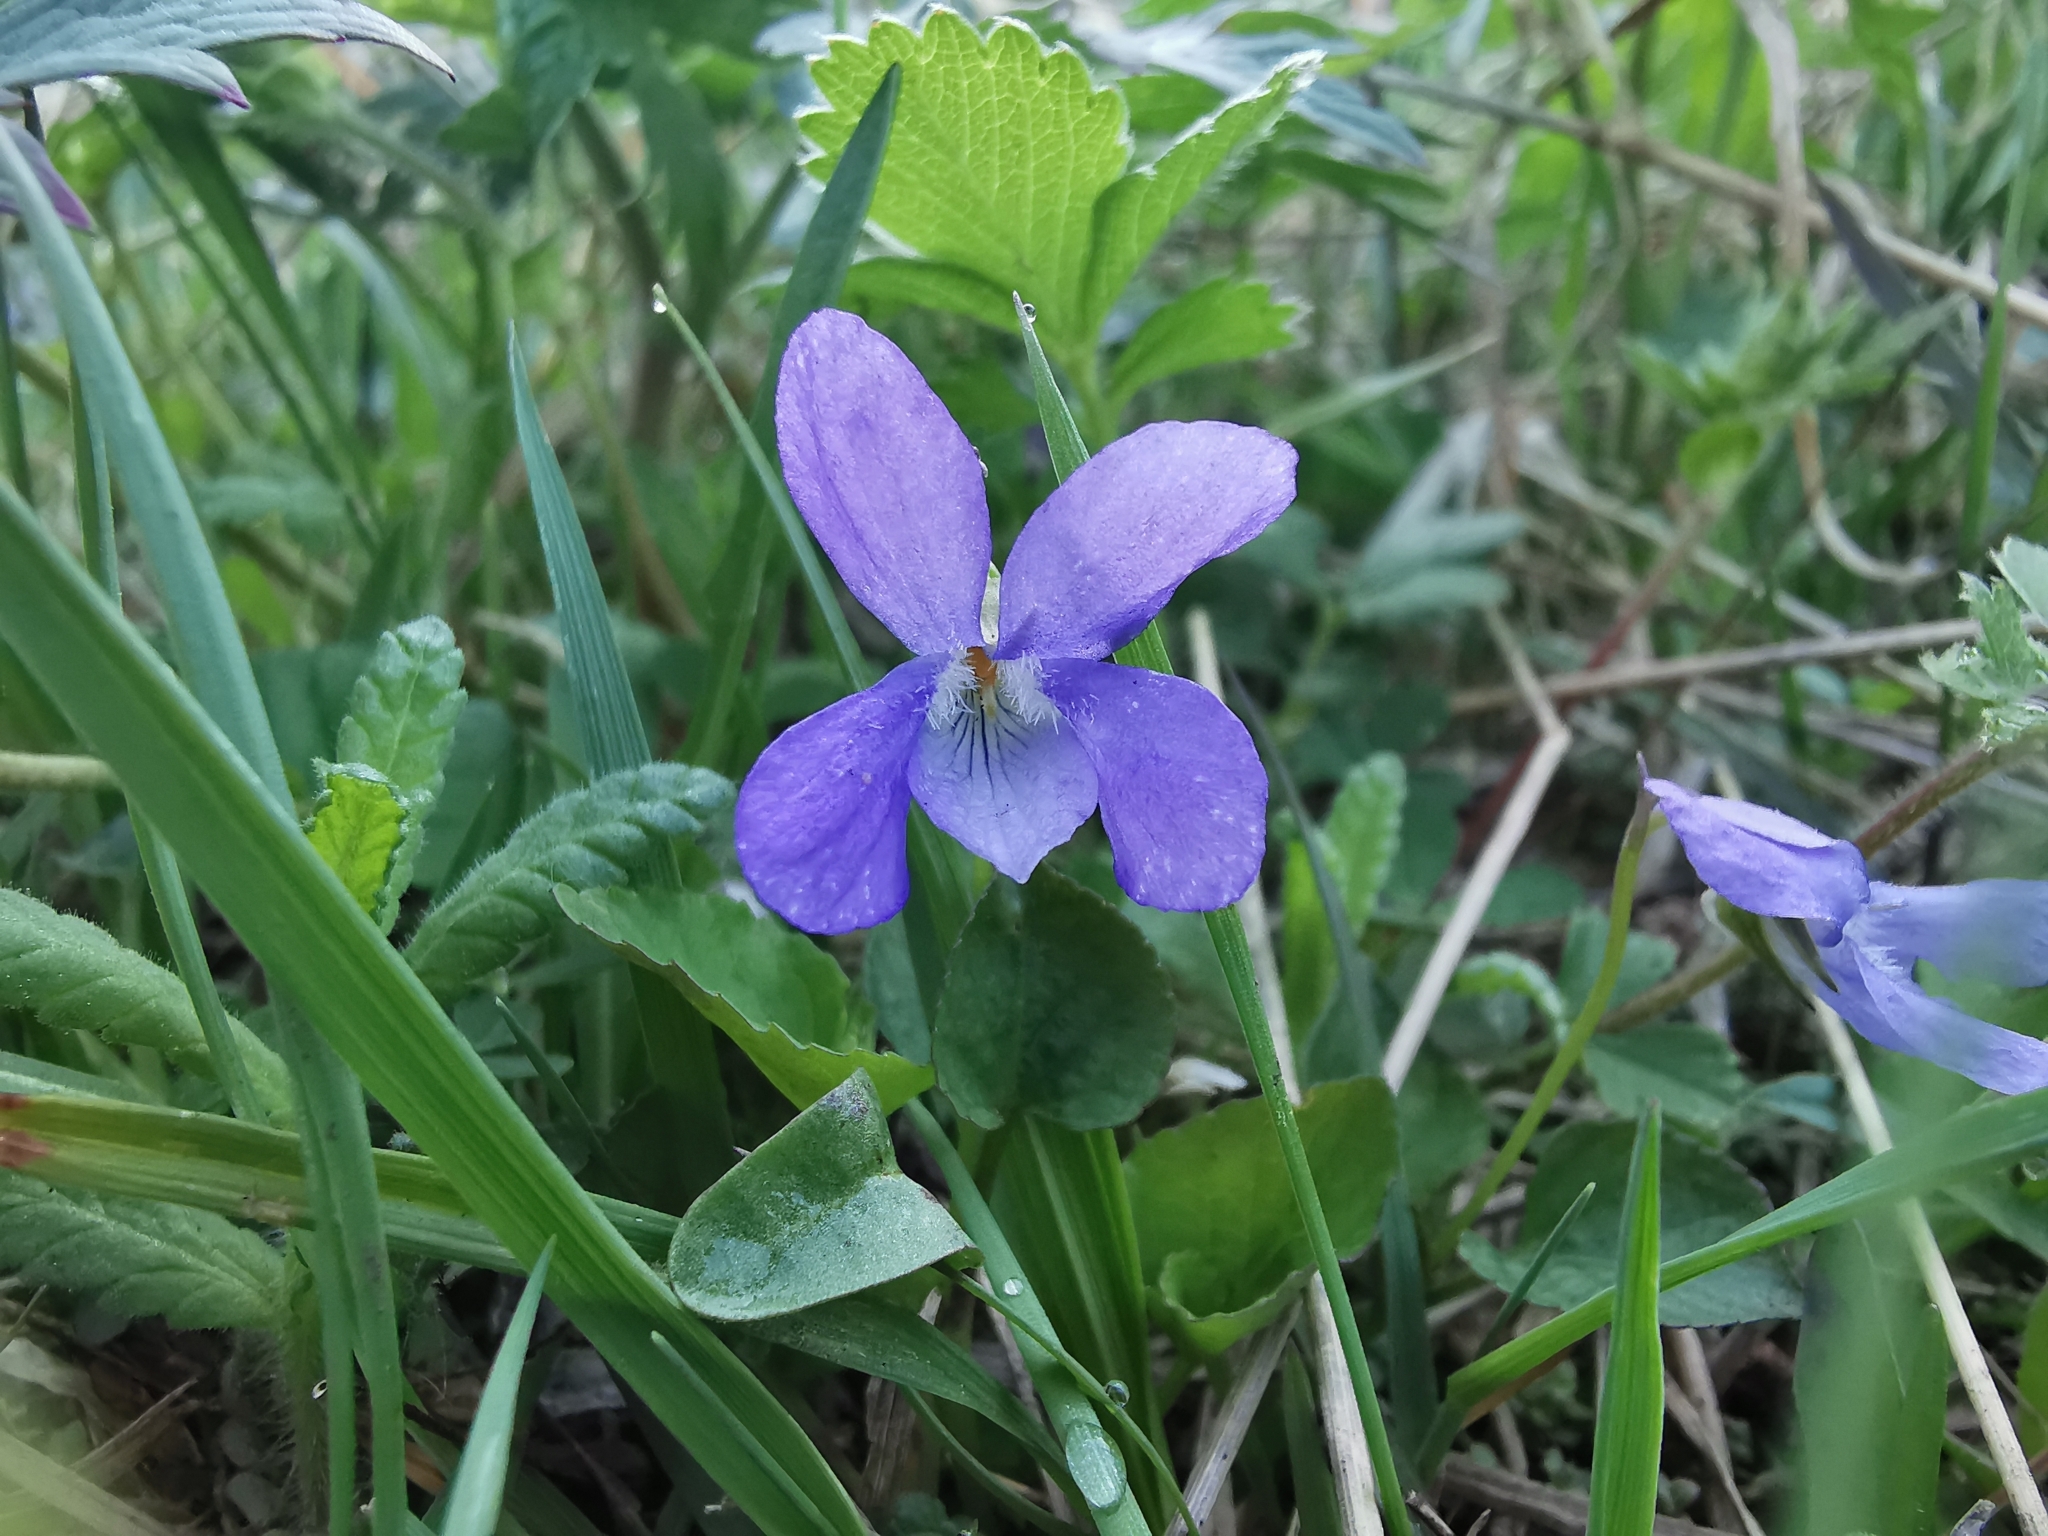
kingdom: Plantae
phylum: Tracheophyta
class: Magnoliopsida
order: Malpighiales
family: Violaceae
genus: Viola
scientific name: Viola sacchalinensis
